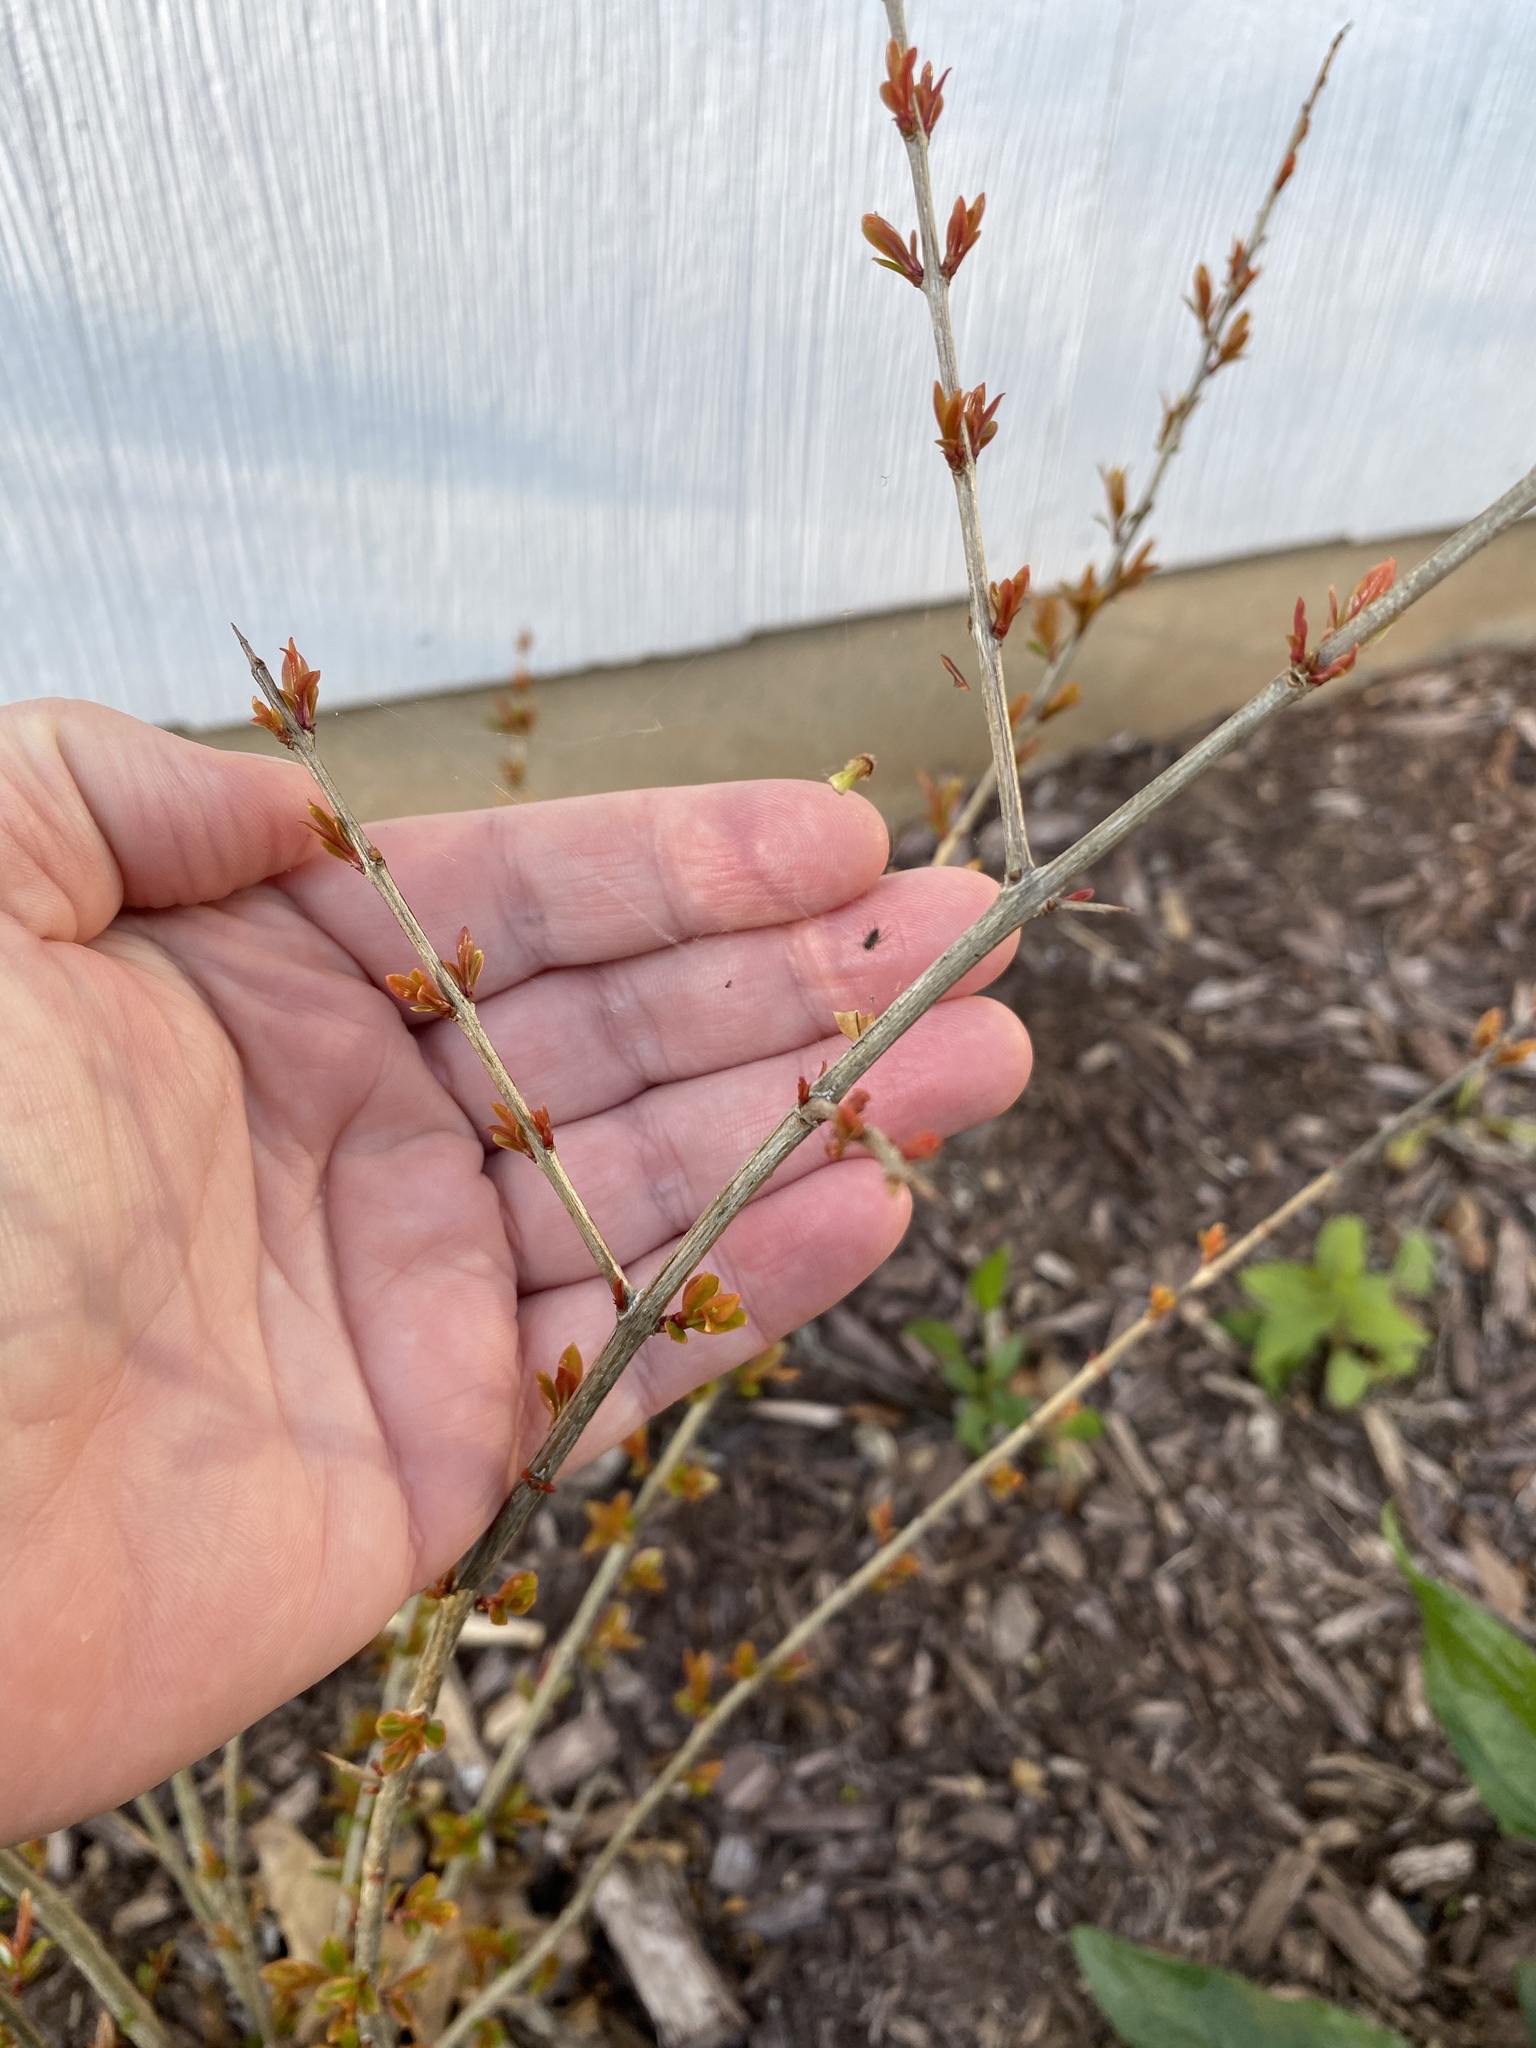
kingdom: Plantae
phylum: Tracheophyta
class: Magnoliopsida
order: Myrtales
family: Lythraceae
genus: Punica
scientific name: Punica granatum
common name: Pomegranate
